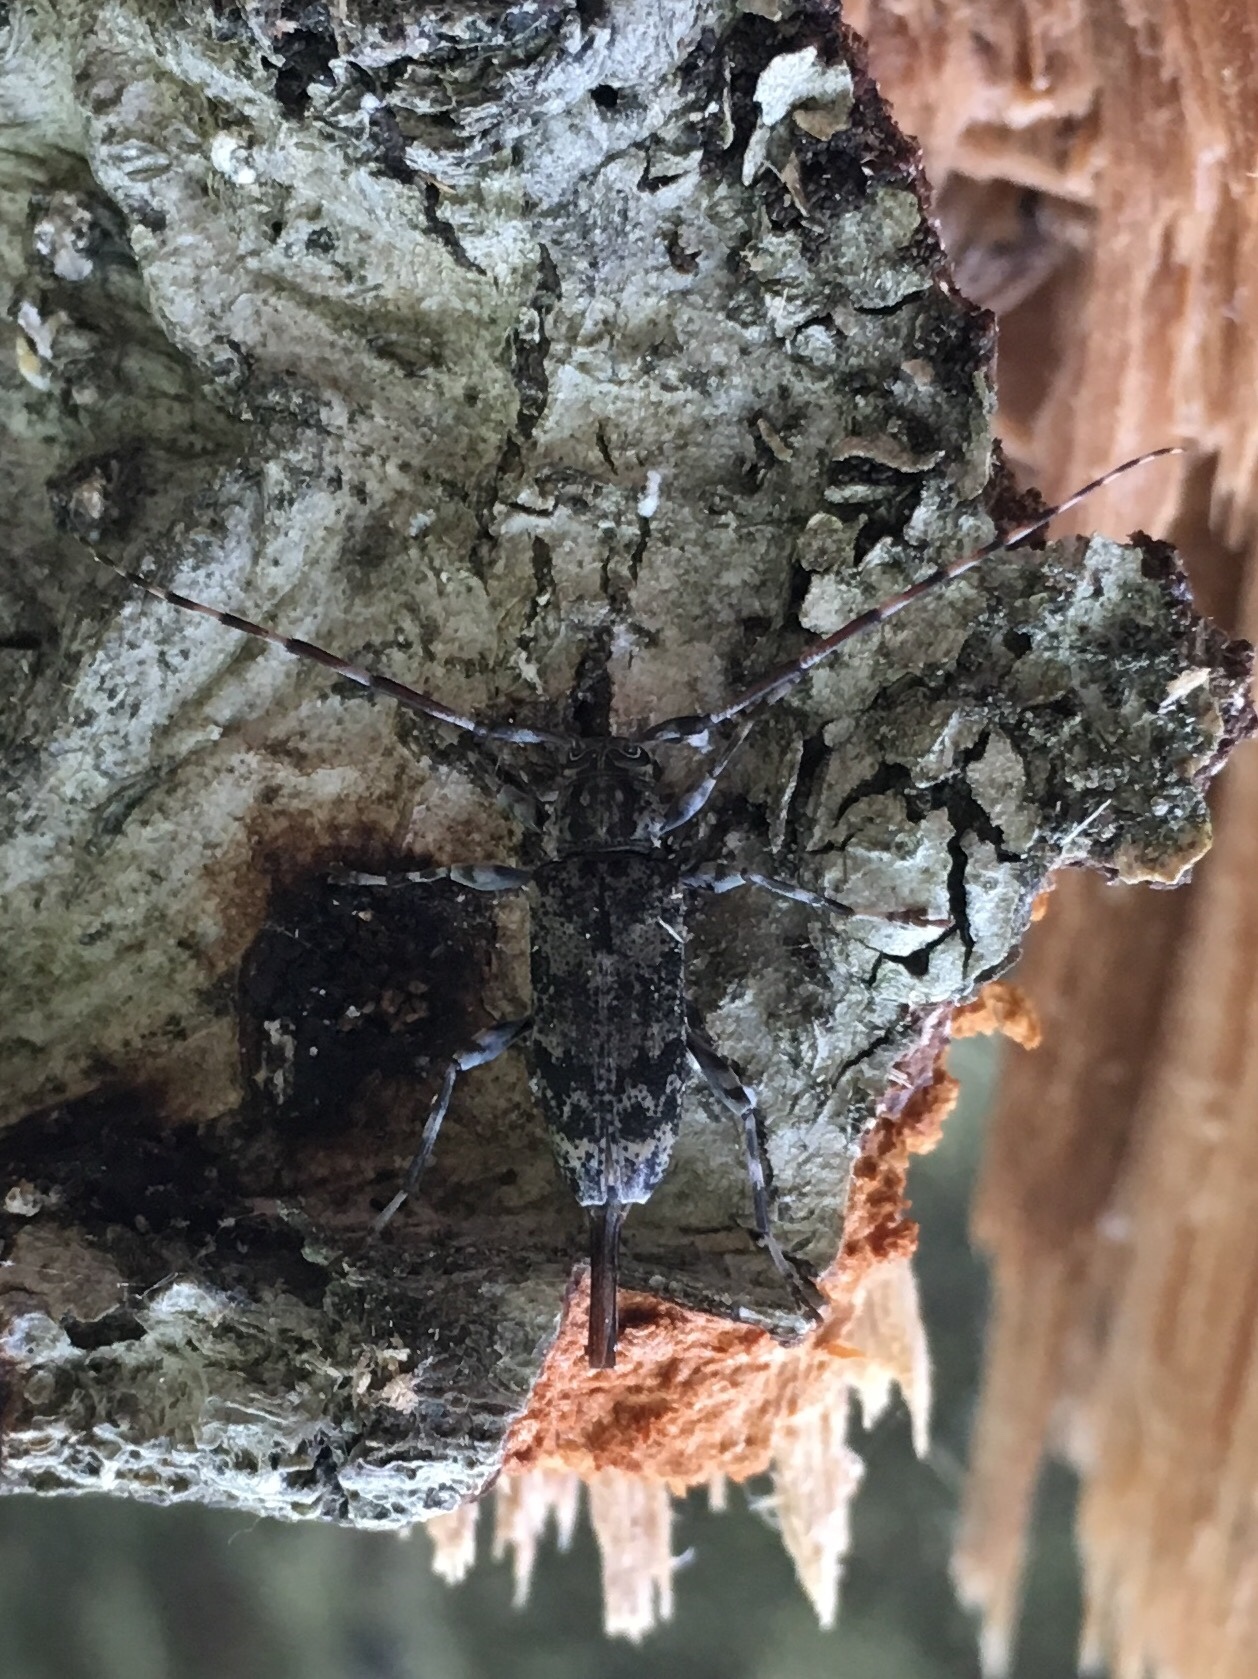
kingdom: Animalia
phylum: Arthropoda
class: Insecta
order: Coleoptera
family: Cerambycidae
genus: Graphisurus
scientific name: Graphisurus fasciatus
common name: Banded graphisurus
